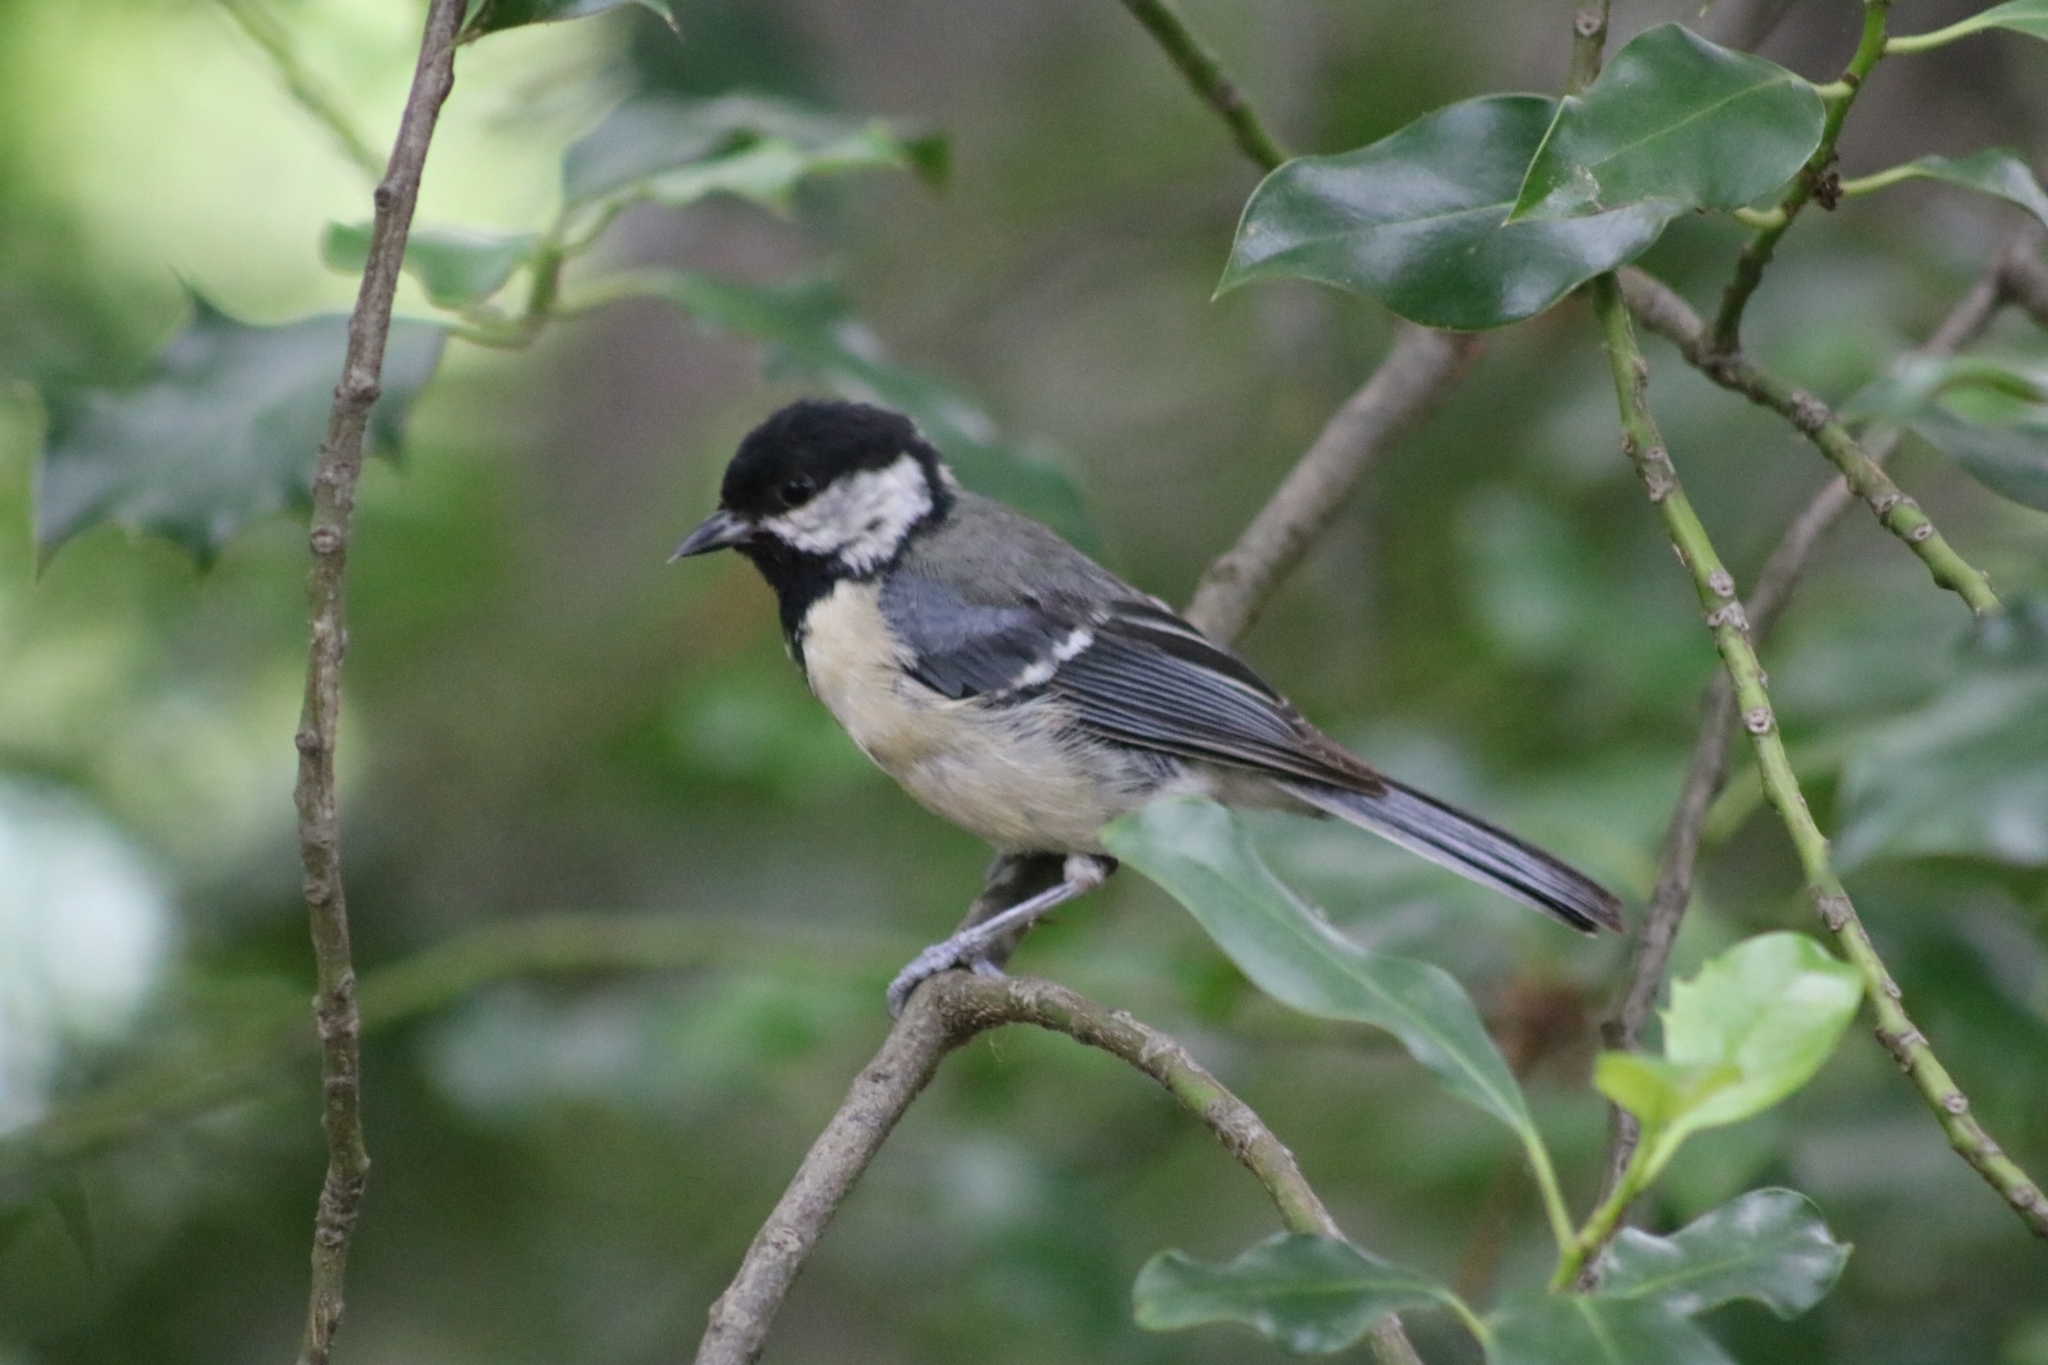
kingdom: Animalia
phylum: Chordata
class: Aves
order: Passeriformes
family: Paridae
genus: Parus
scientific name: Parus major
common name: Great tit
